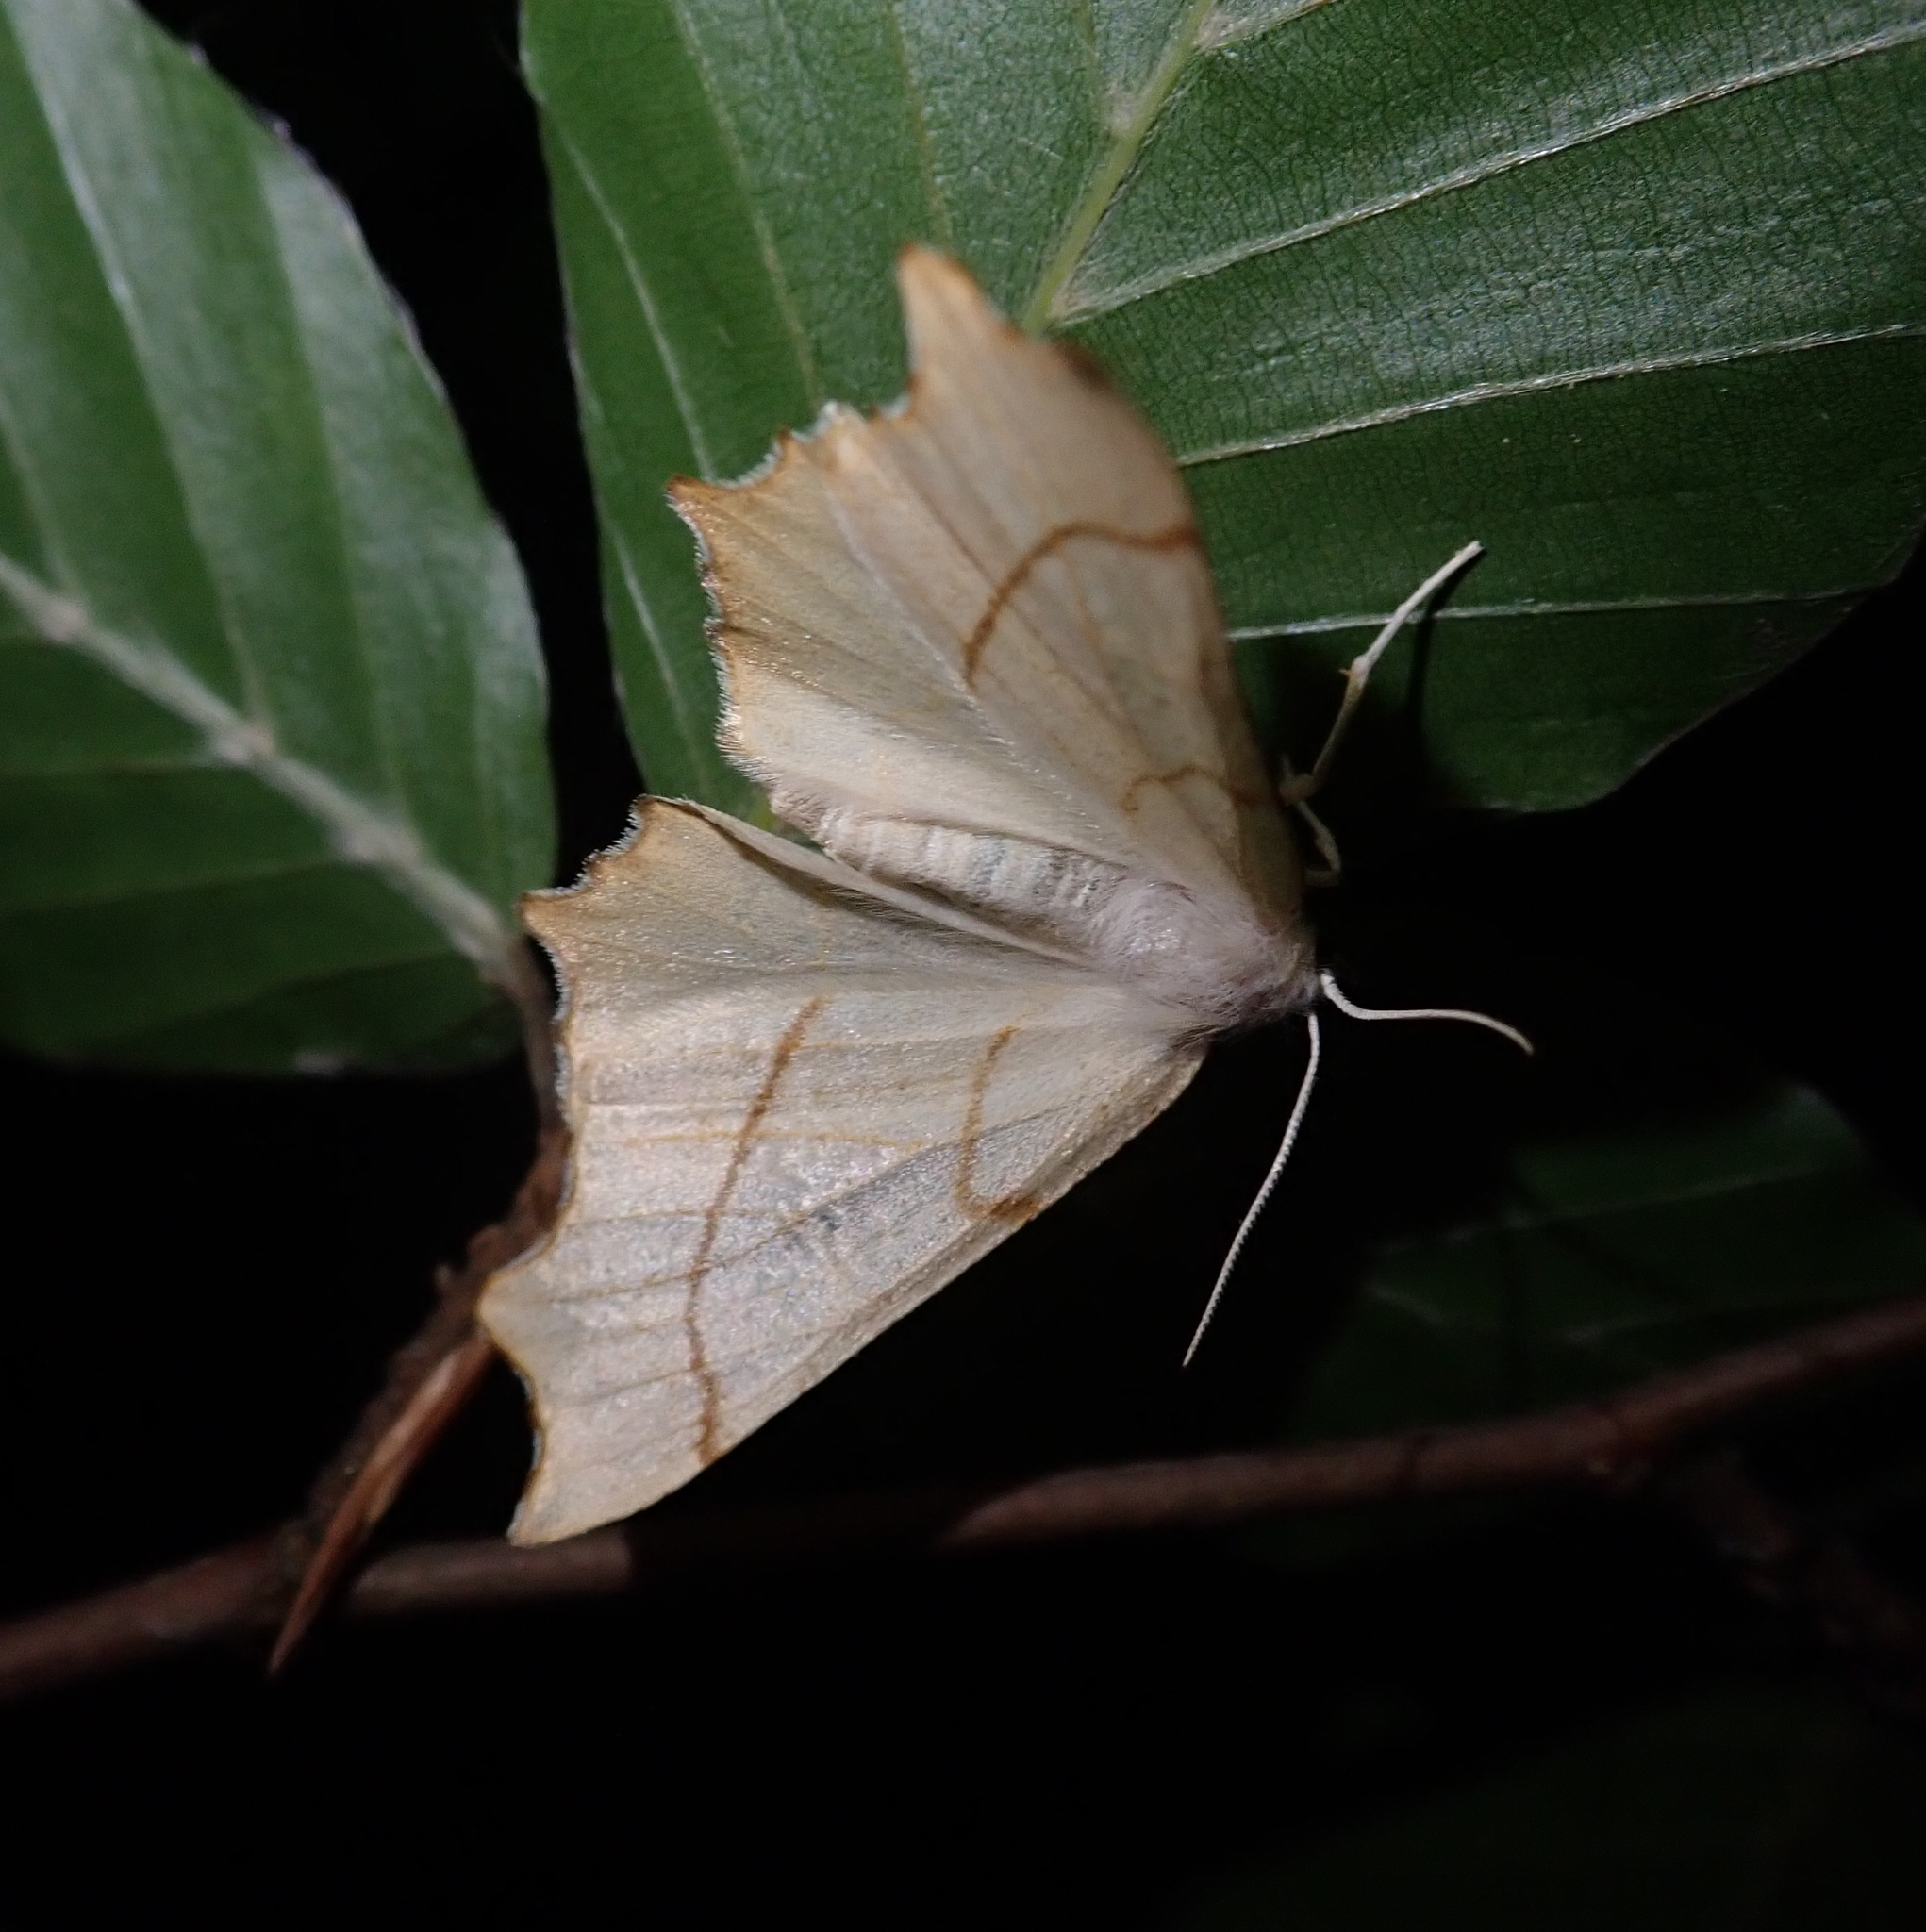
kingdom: Animalia
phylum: Arthropoda
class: Insecta
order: Lepidoptera
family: Geometridae
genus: Ennomos
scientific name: Ennomos erosaria
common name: September thorn
